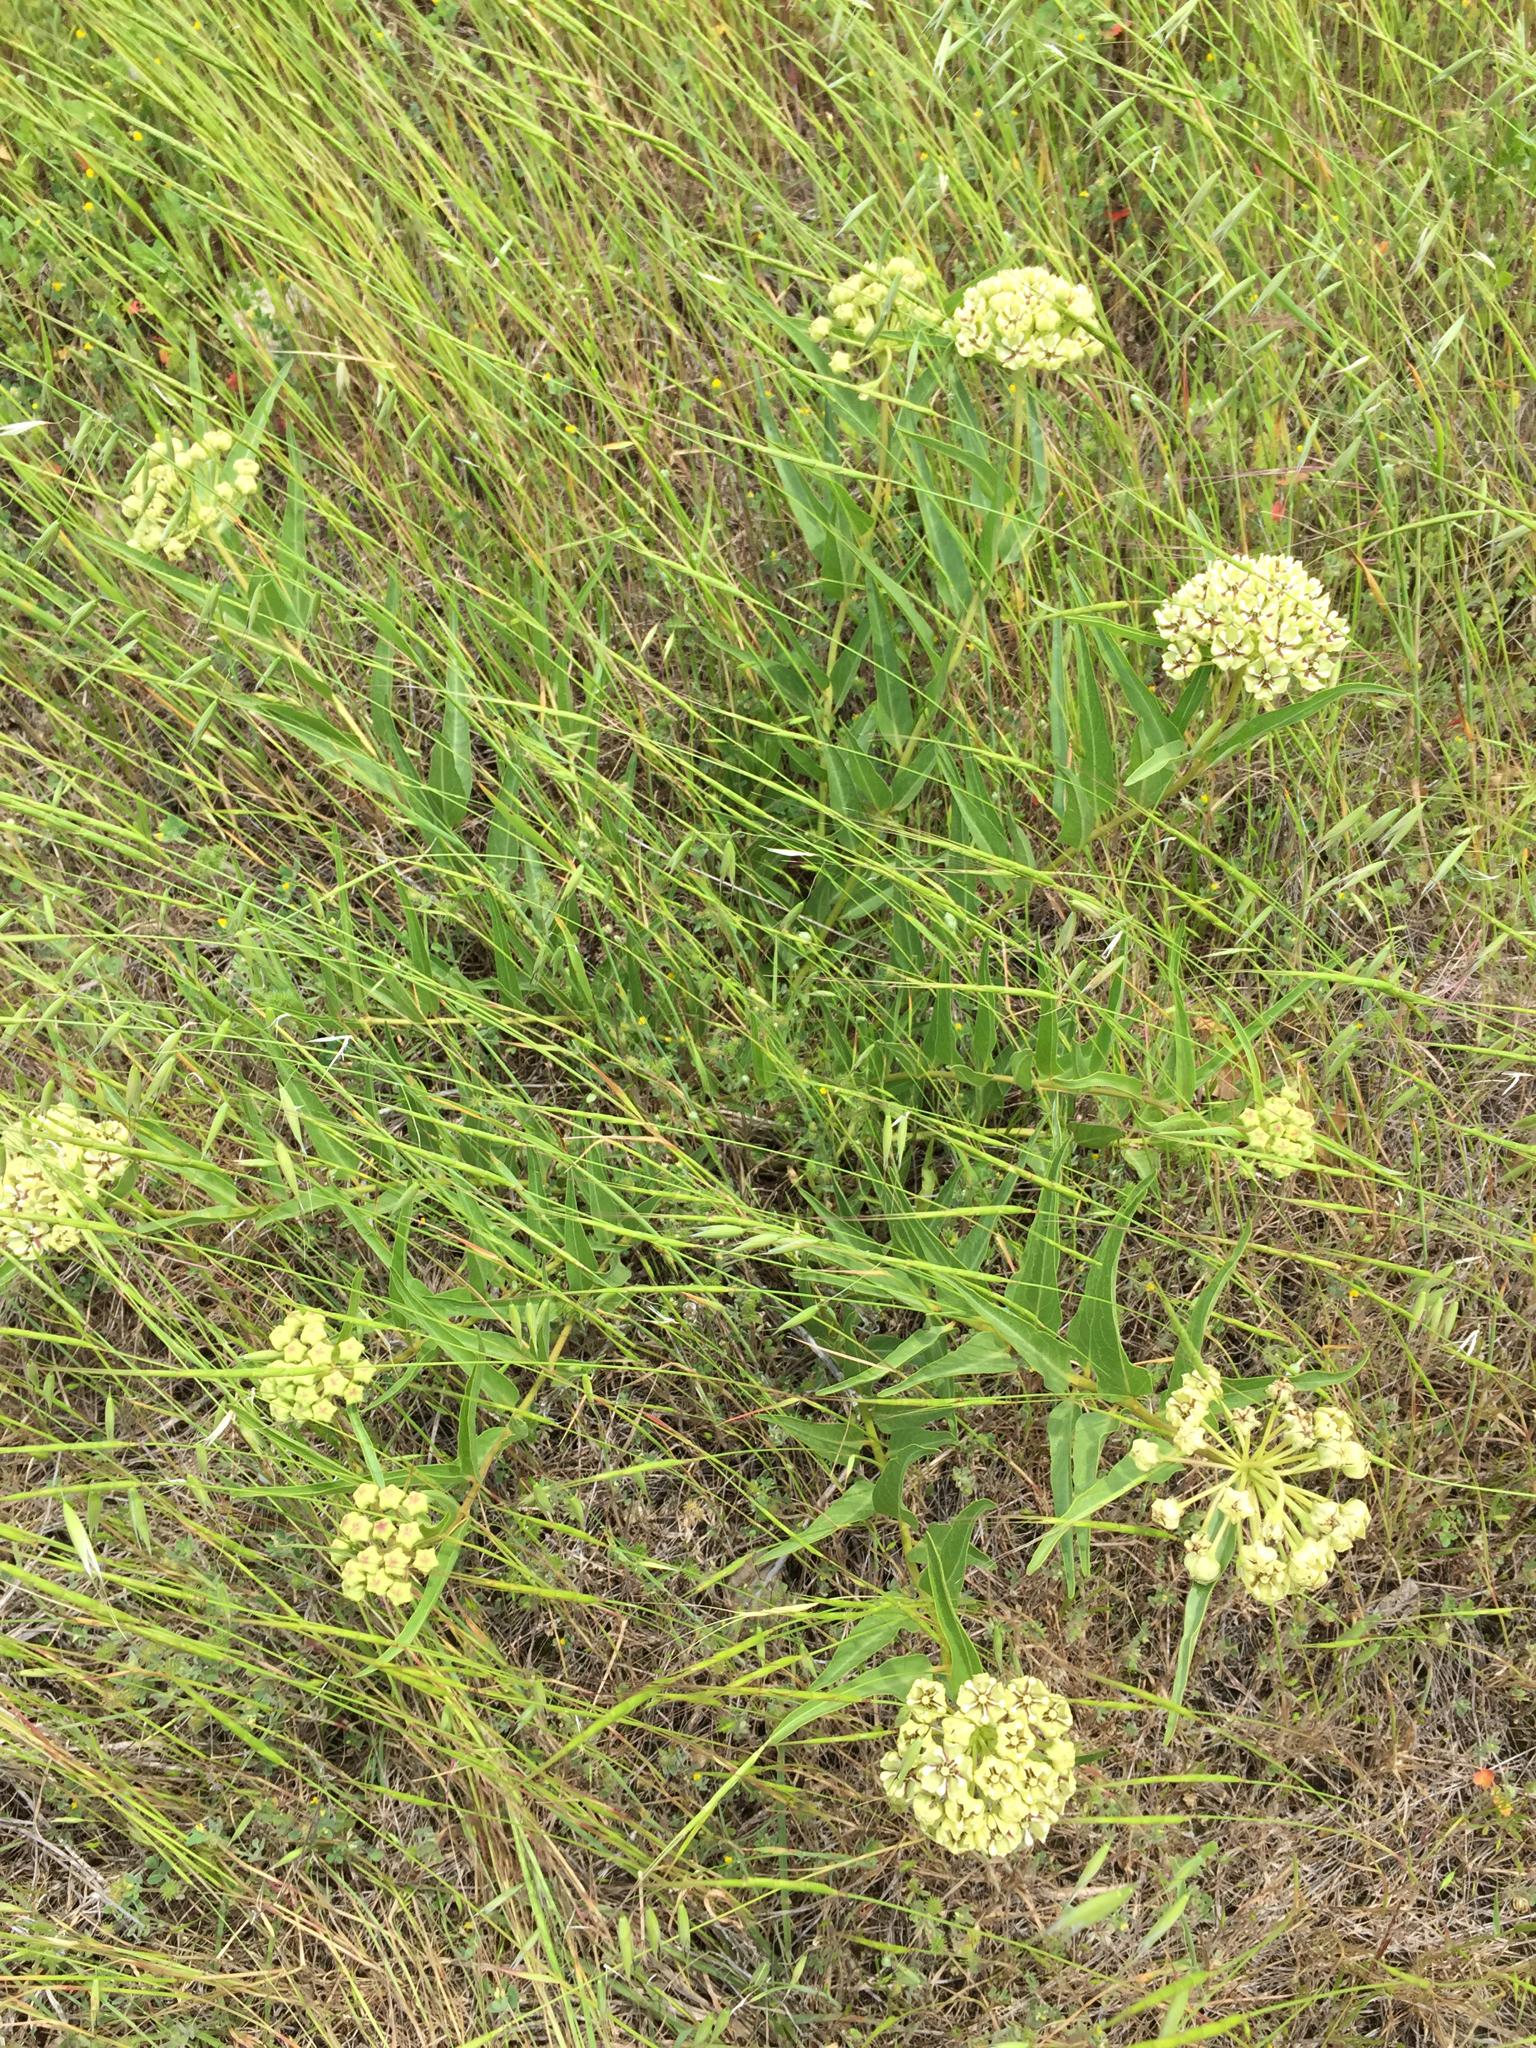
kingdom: Plantae
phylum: Tracheophyta
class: Magnoliopsida
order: Gentianales
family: Apocynaceae
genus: Asclepias
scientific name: Asclepias asperula
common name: Antelope horns
